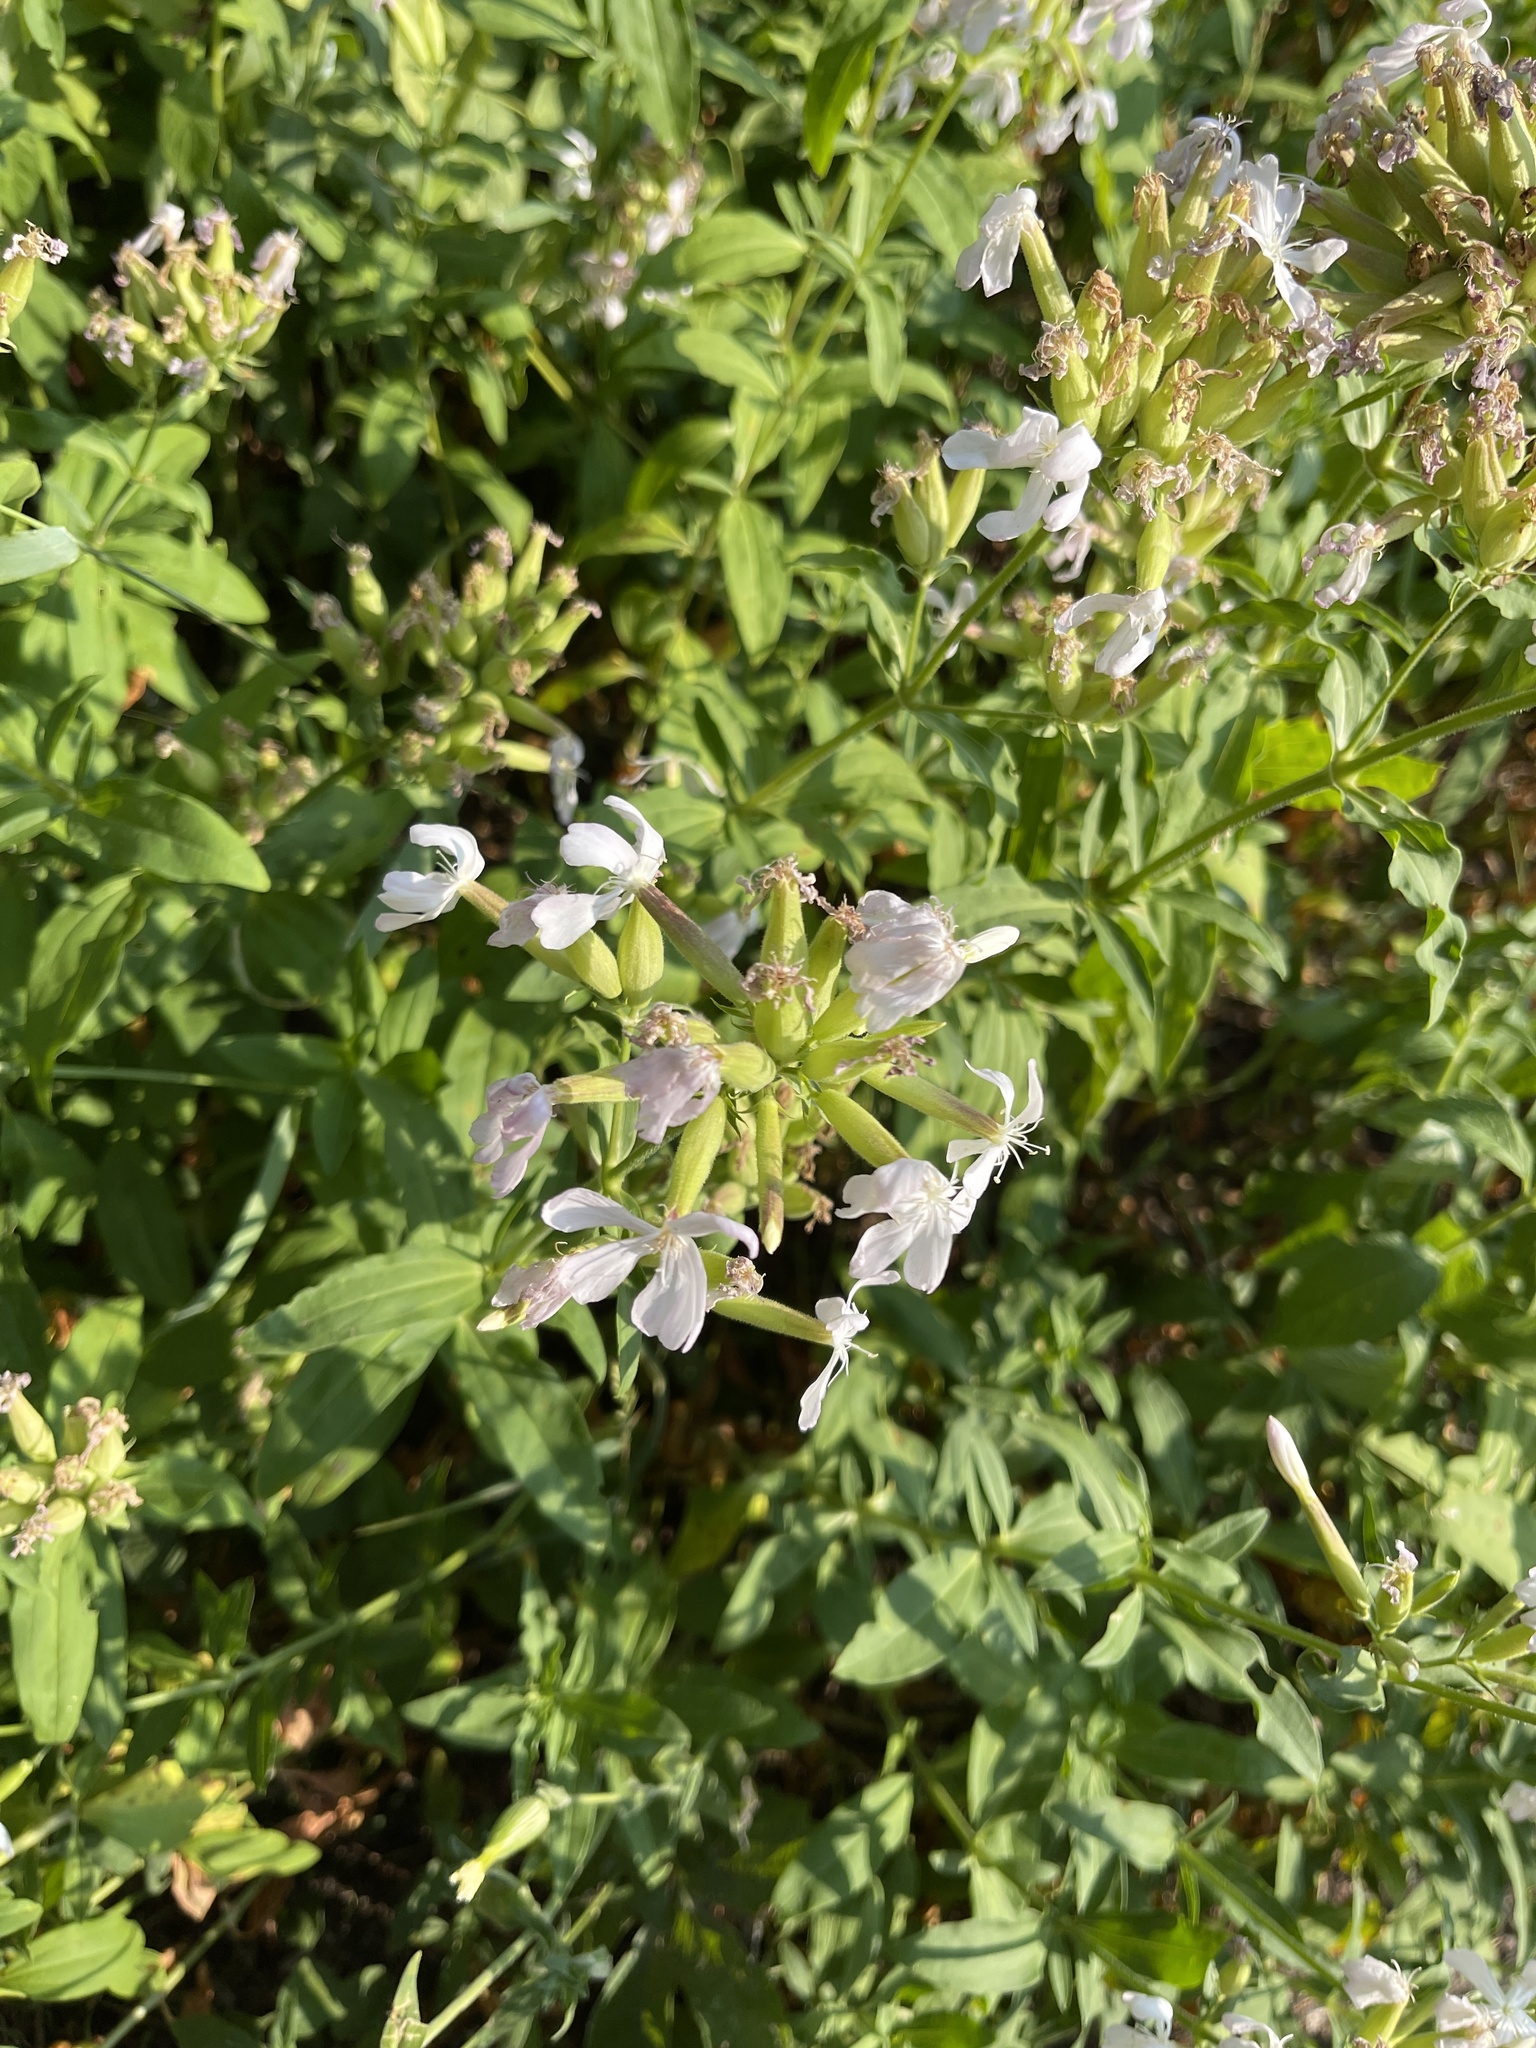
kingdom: Plantae
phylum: Tracheophyta
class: Magnoliopsida
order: Caryophyllales
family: Caryophyllaceae
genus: Saponaria
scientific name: Saponaria officinalis
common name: Soapwort
